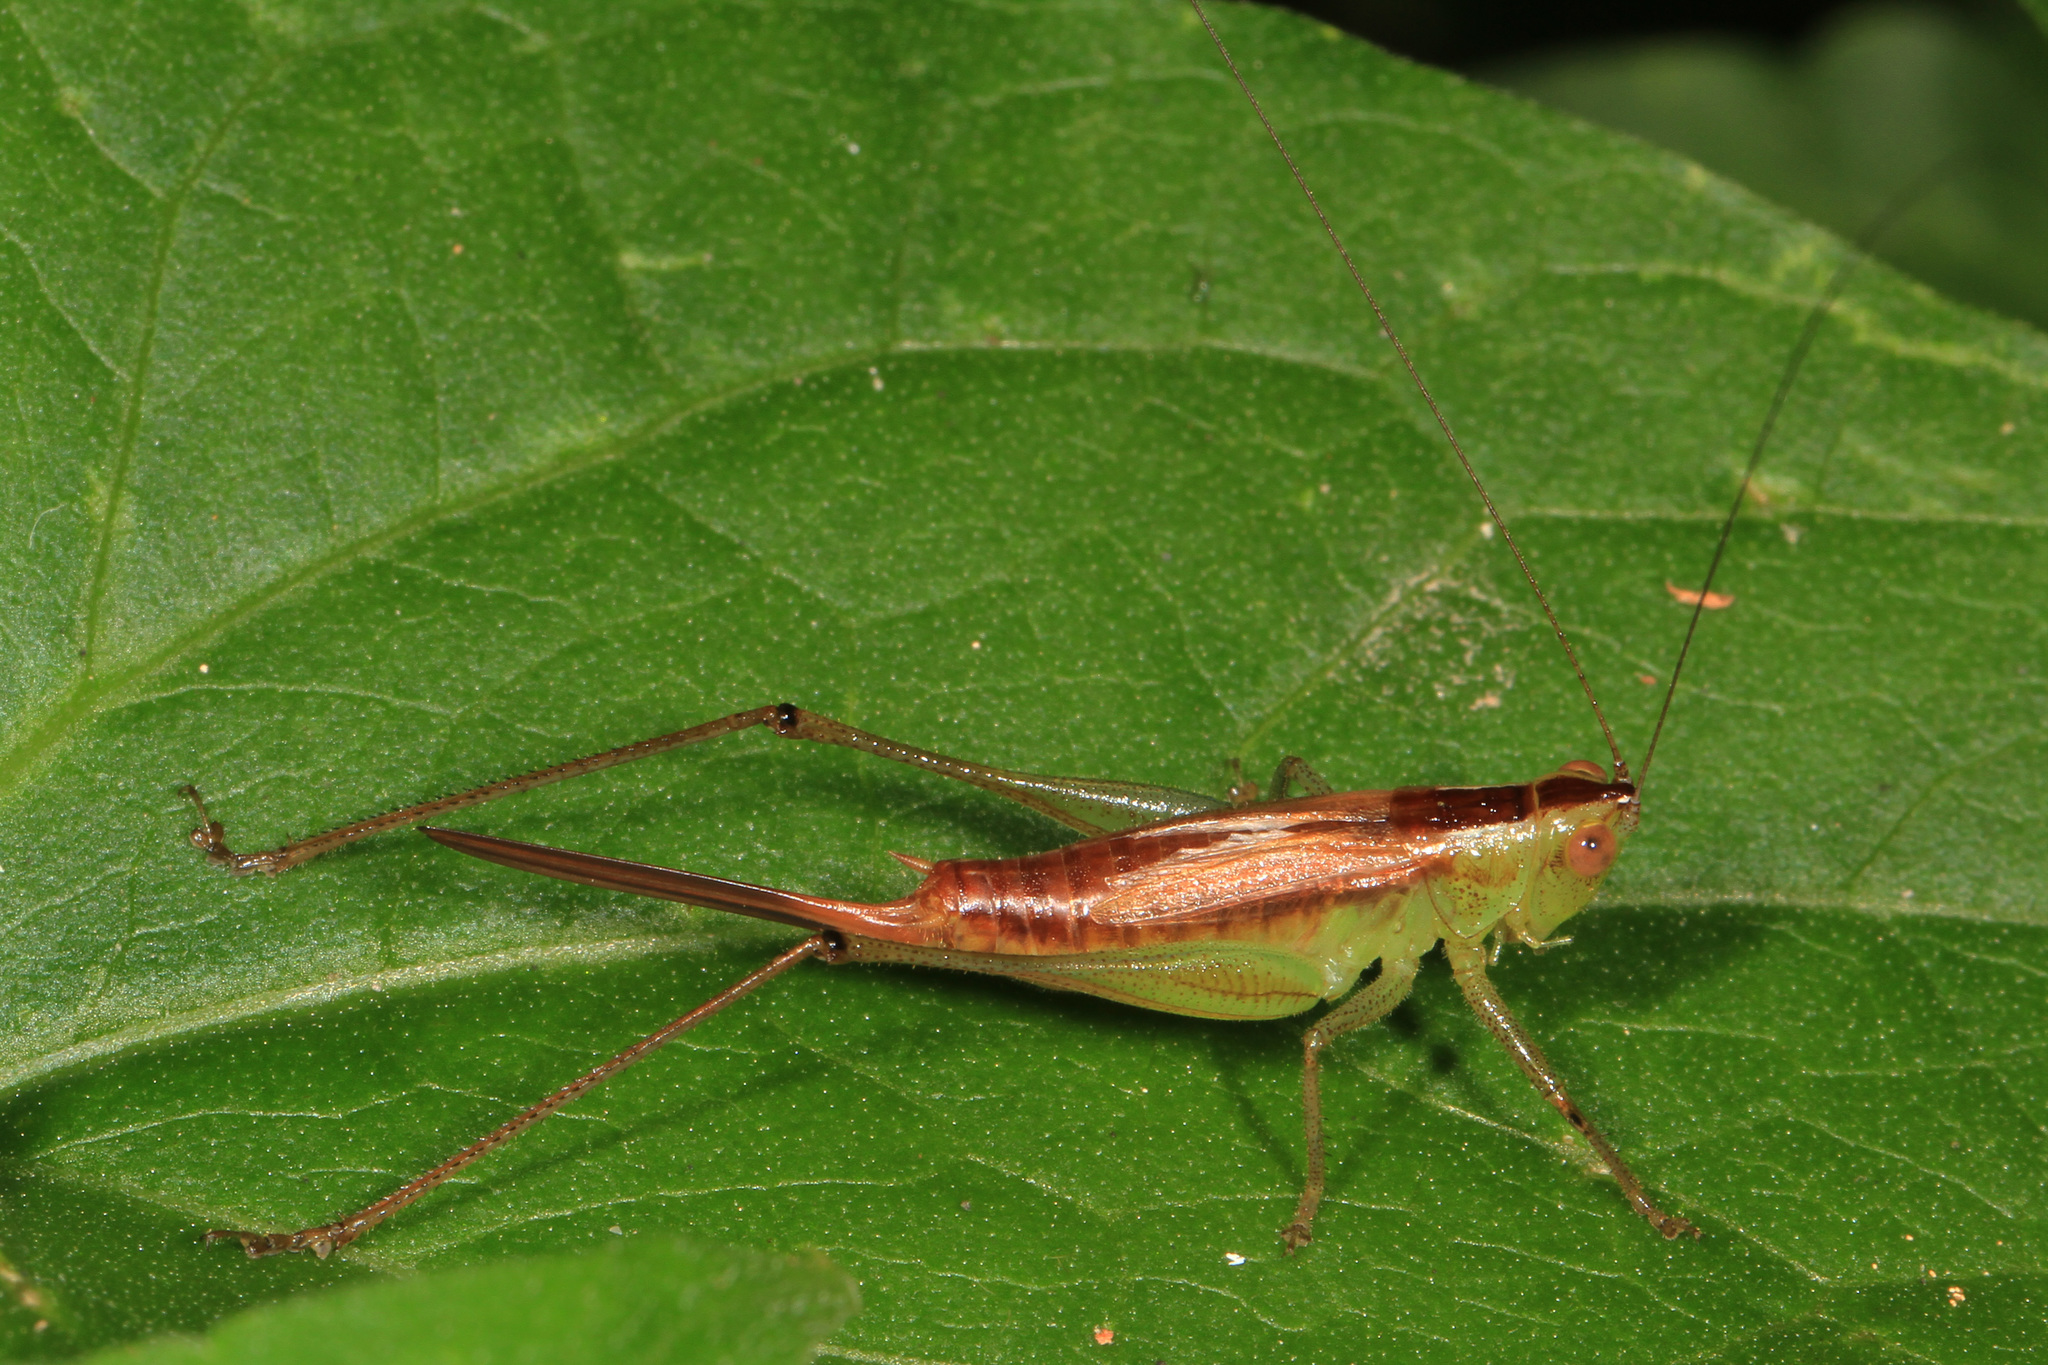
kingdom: Animalia
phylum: Arthropoda
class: Insecta
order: Orthoptera
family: Tettigoniidae
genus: Conocephalus
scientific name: Conocephalus brevipennis
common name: Short-winged meadow katydid
